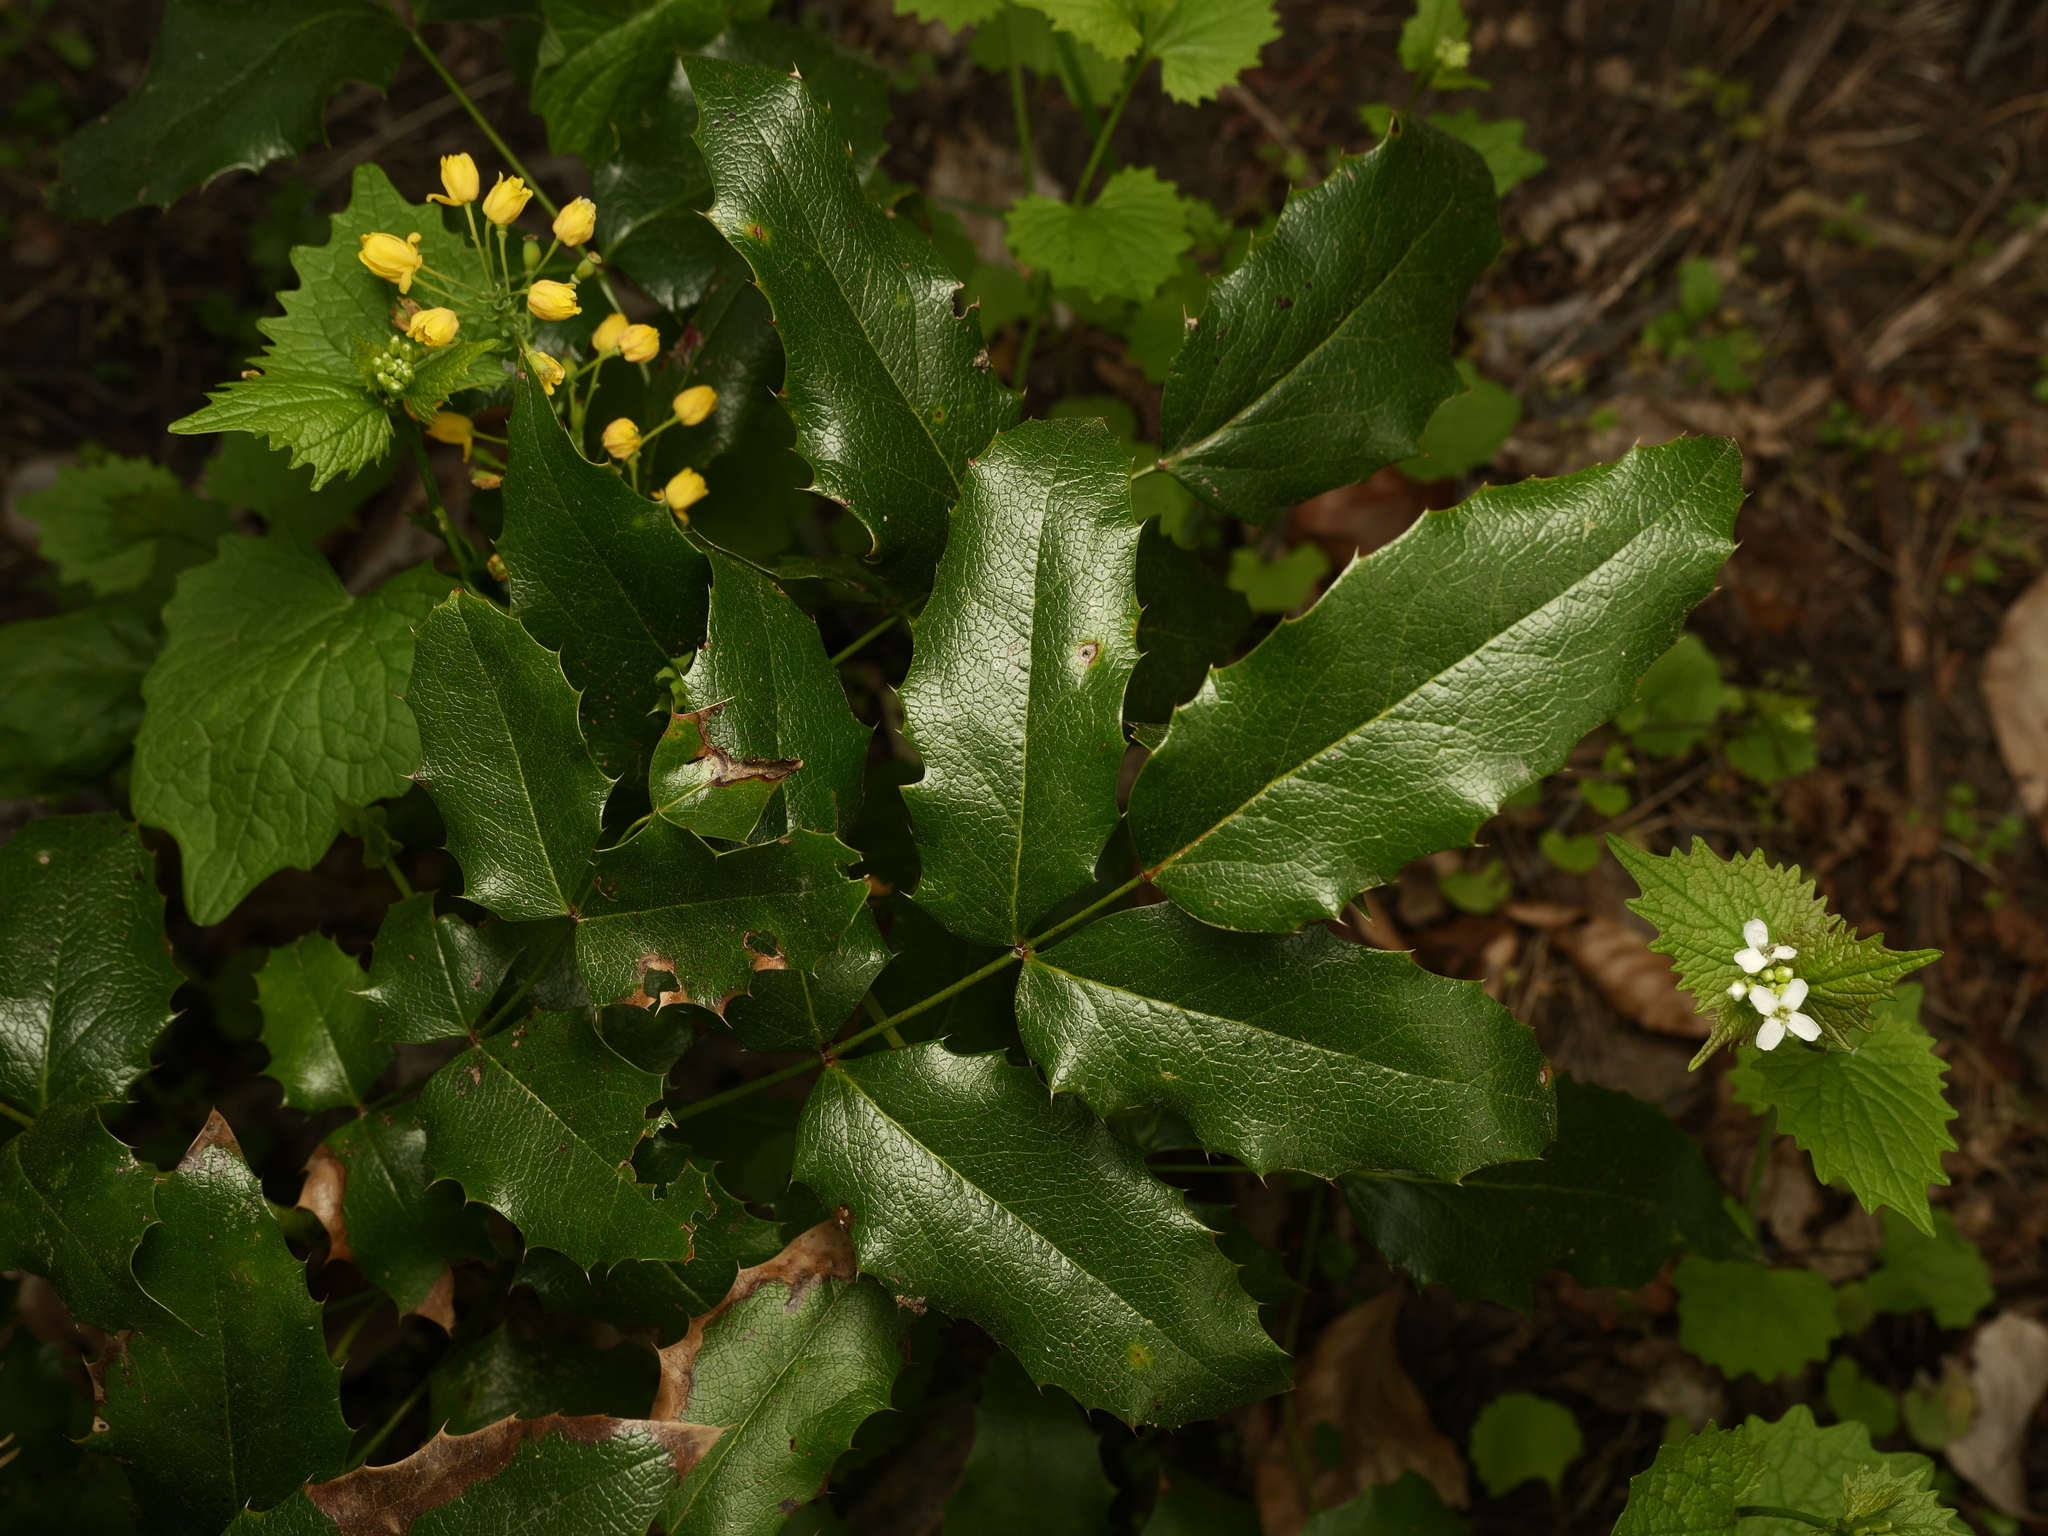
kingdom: Plantae
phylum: Tracheophyta
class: Magnoliopsida
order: Ranunculales
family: Berberidaceae
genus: Mahonia
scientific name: Mahonia aquifolium
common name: Oregon-grape
